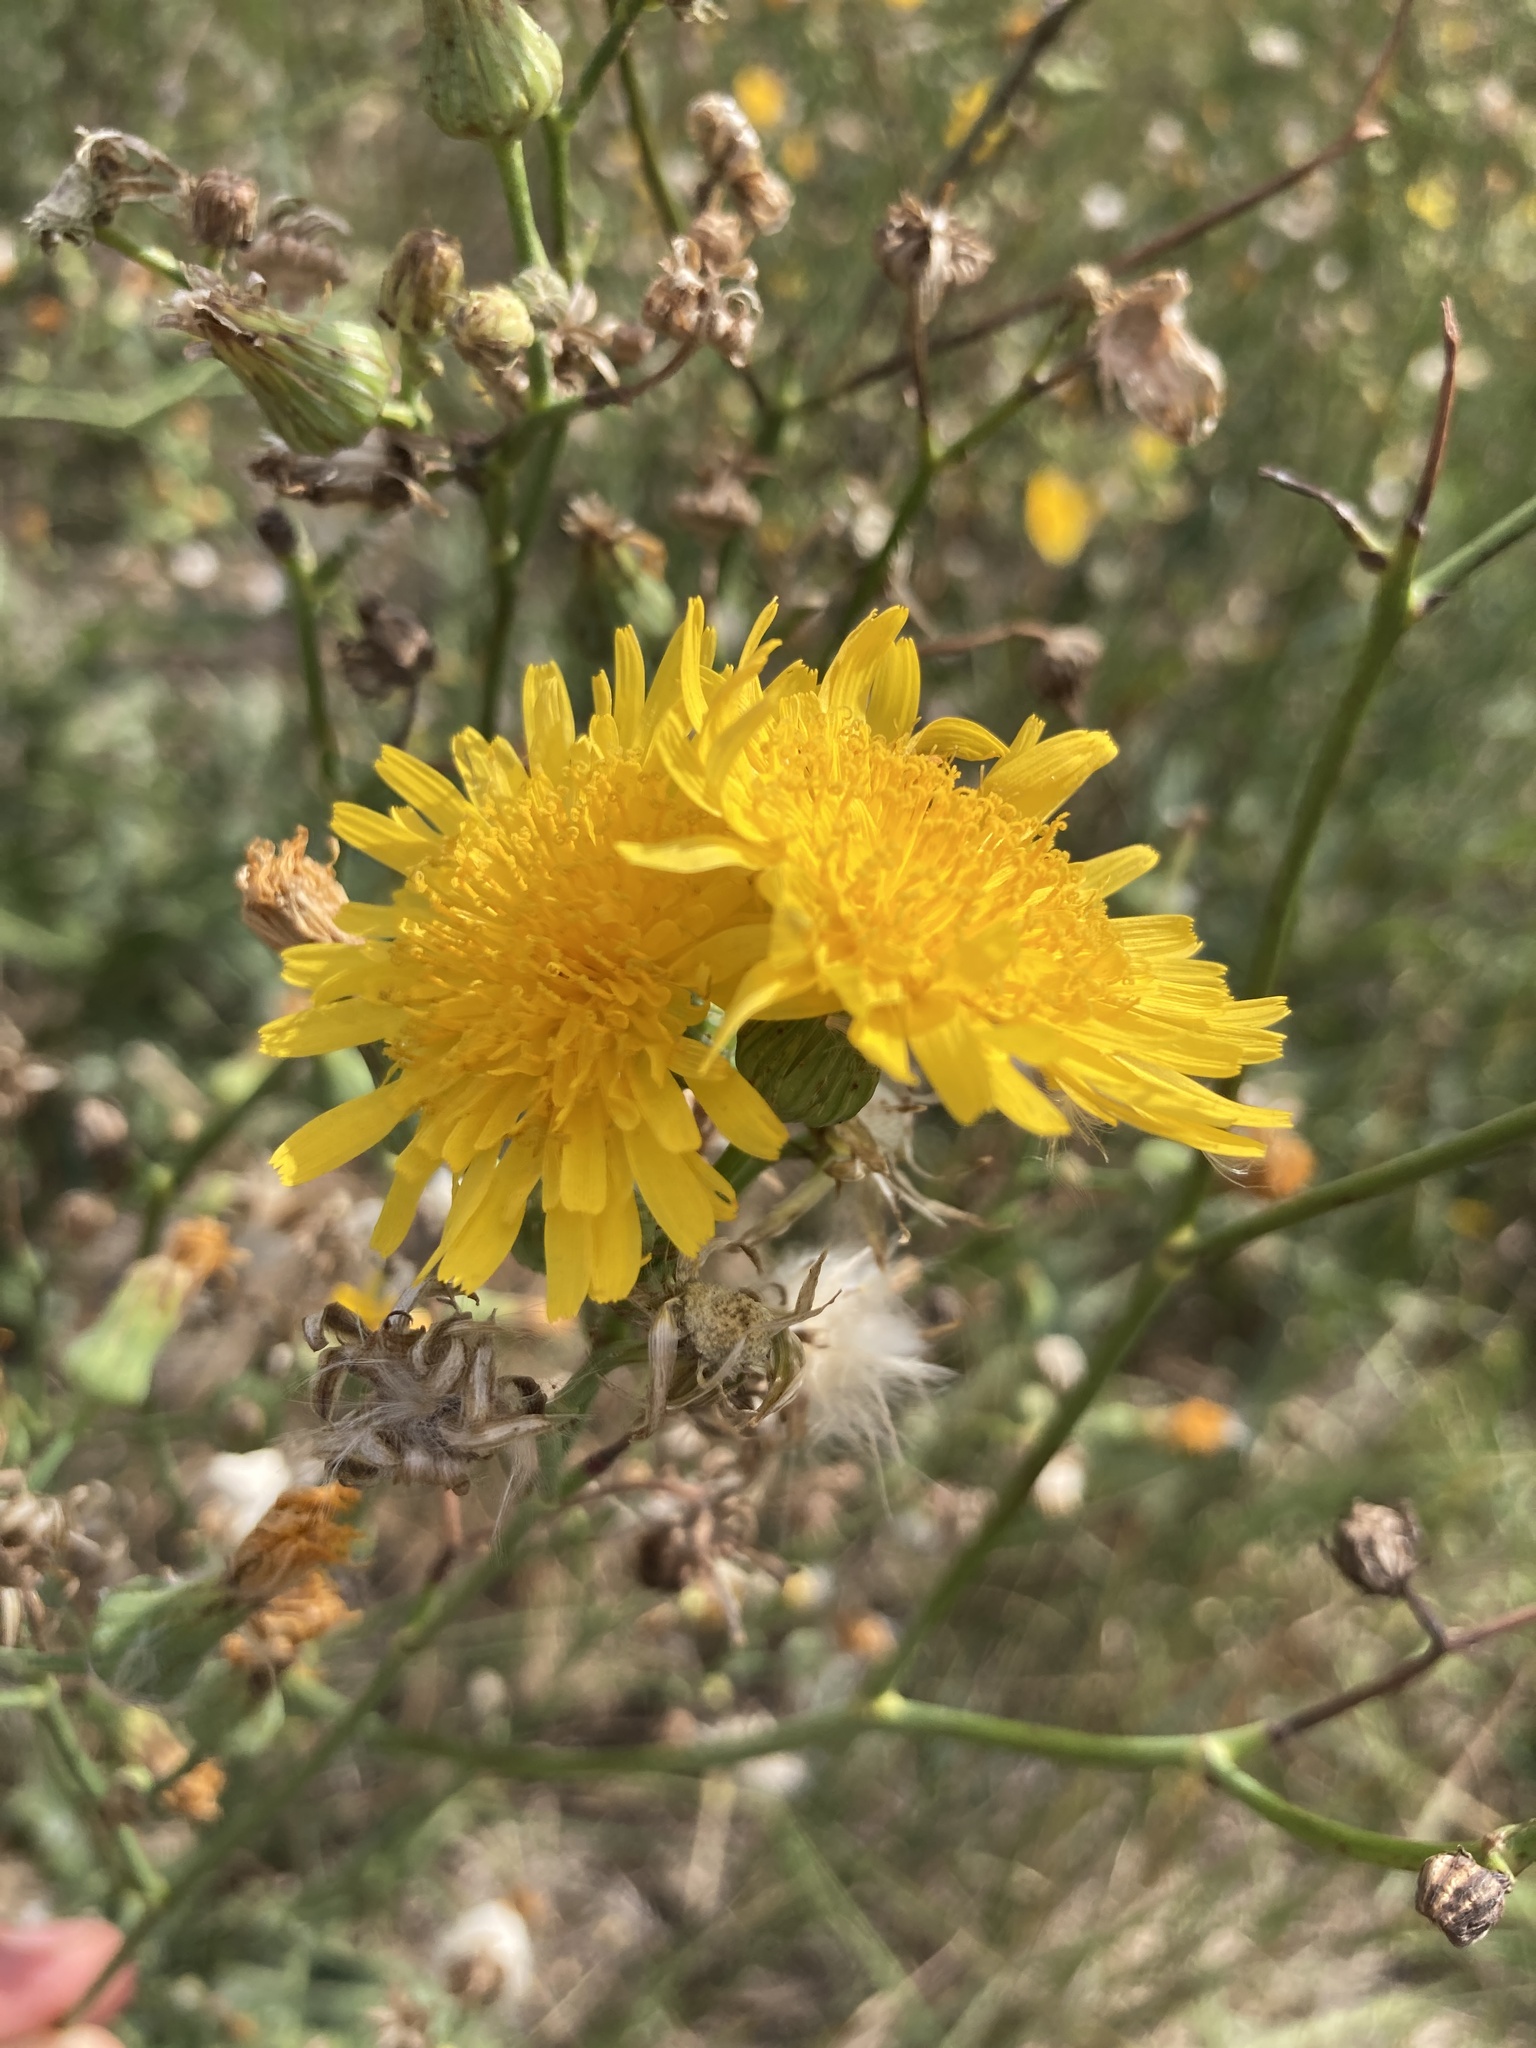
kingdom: Plantae
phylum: Tracheophyta
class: Magnoliopsida
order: Asterales
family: Asteraceae
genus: Sonchus
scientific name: Sonchus arvensis
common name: Perennial sow-thistle
